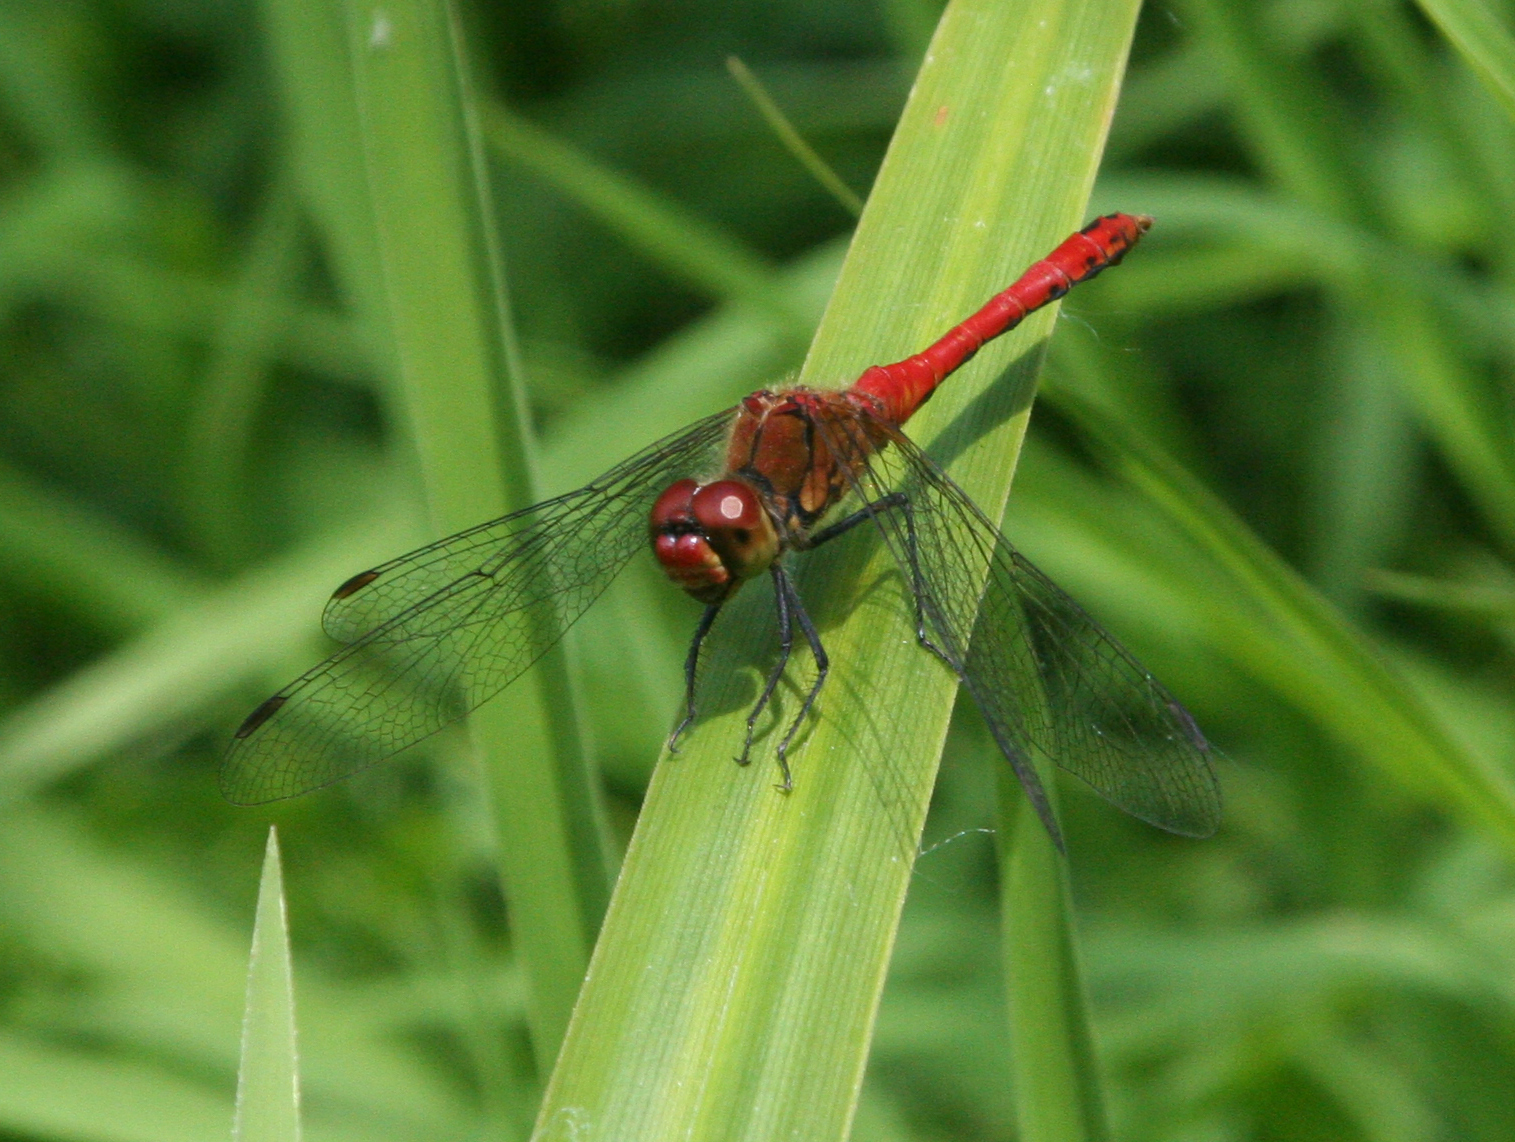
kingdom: Animalia
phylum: Arthropoda
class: Insecta
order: Odonata
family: Libellulidae
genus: Sympetrum
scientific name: Sympetrum sanguineum
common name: Ruddy darter
